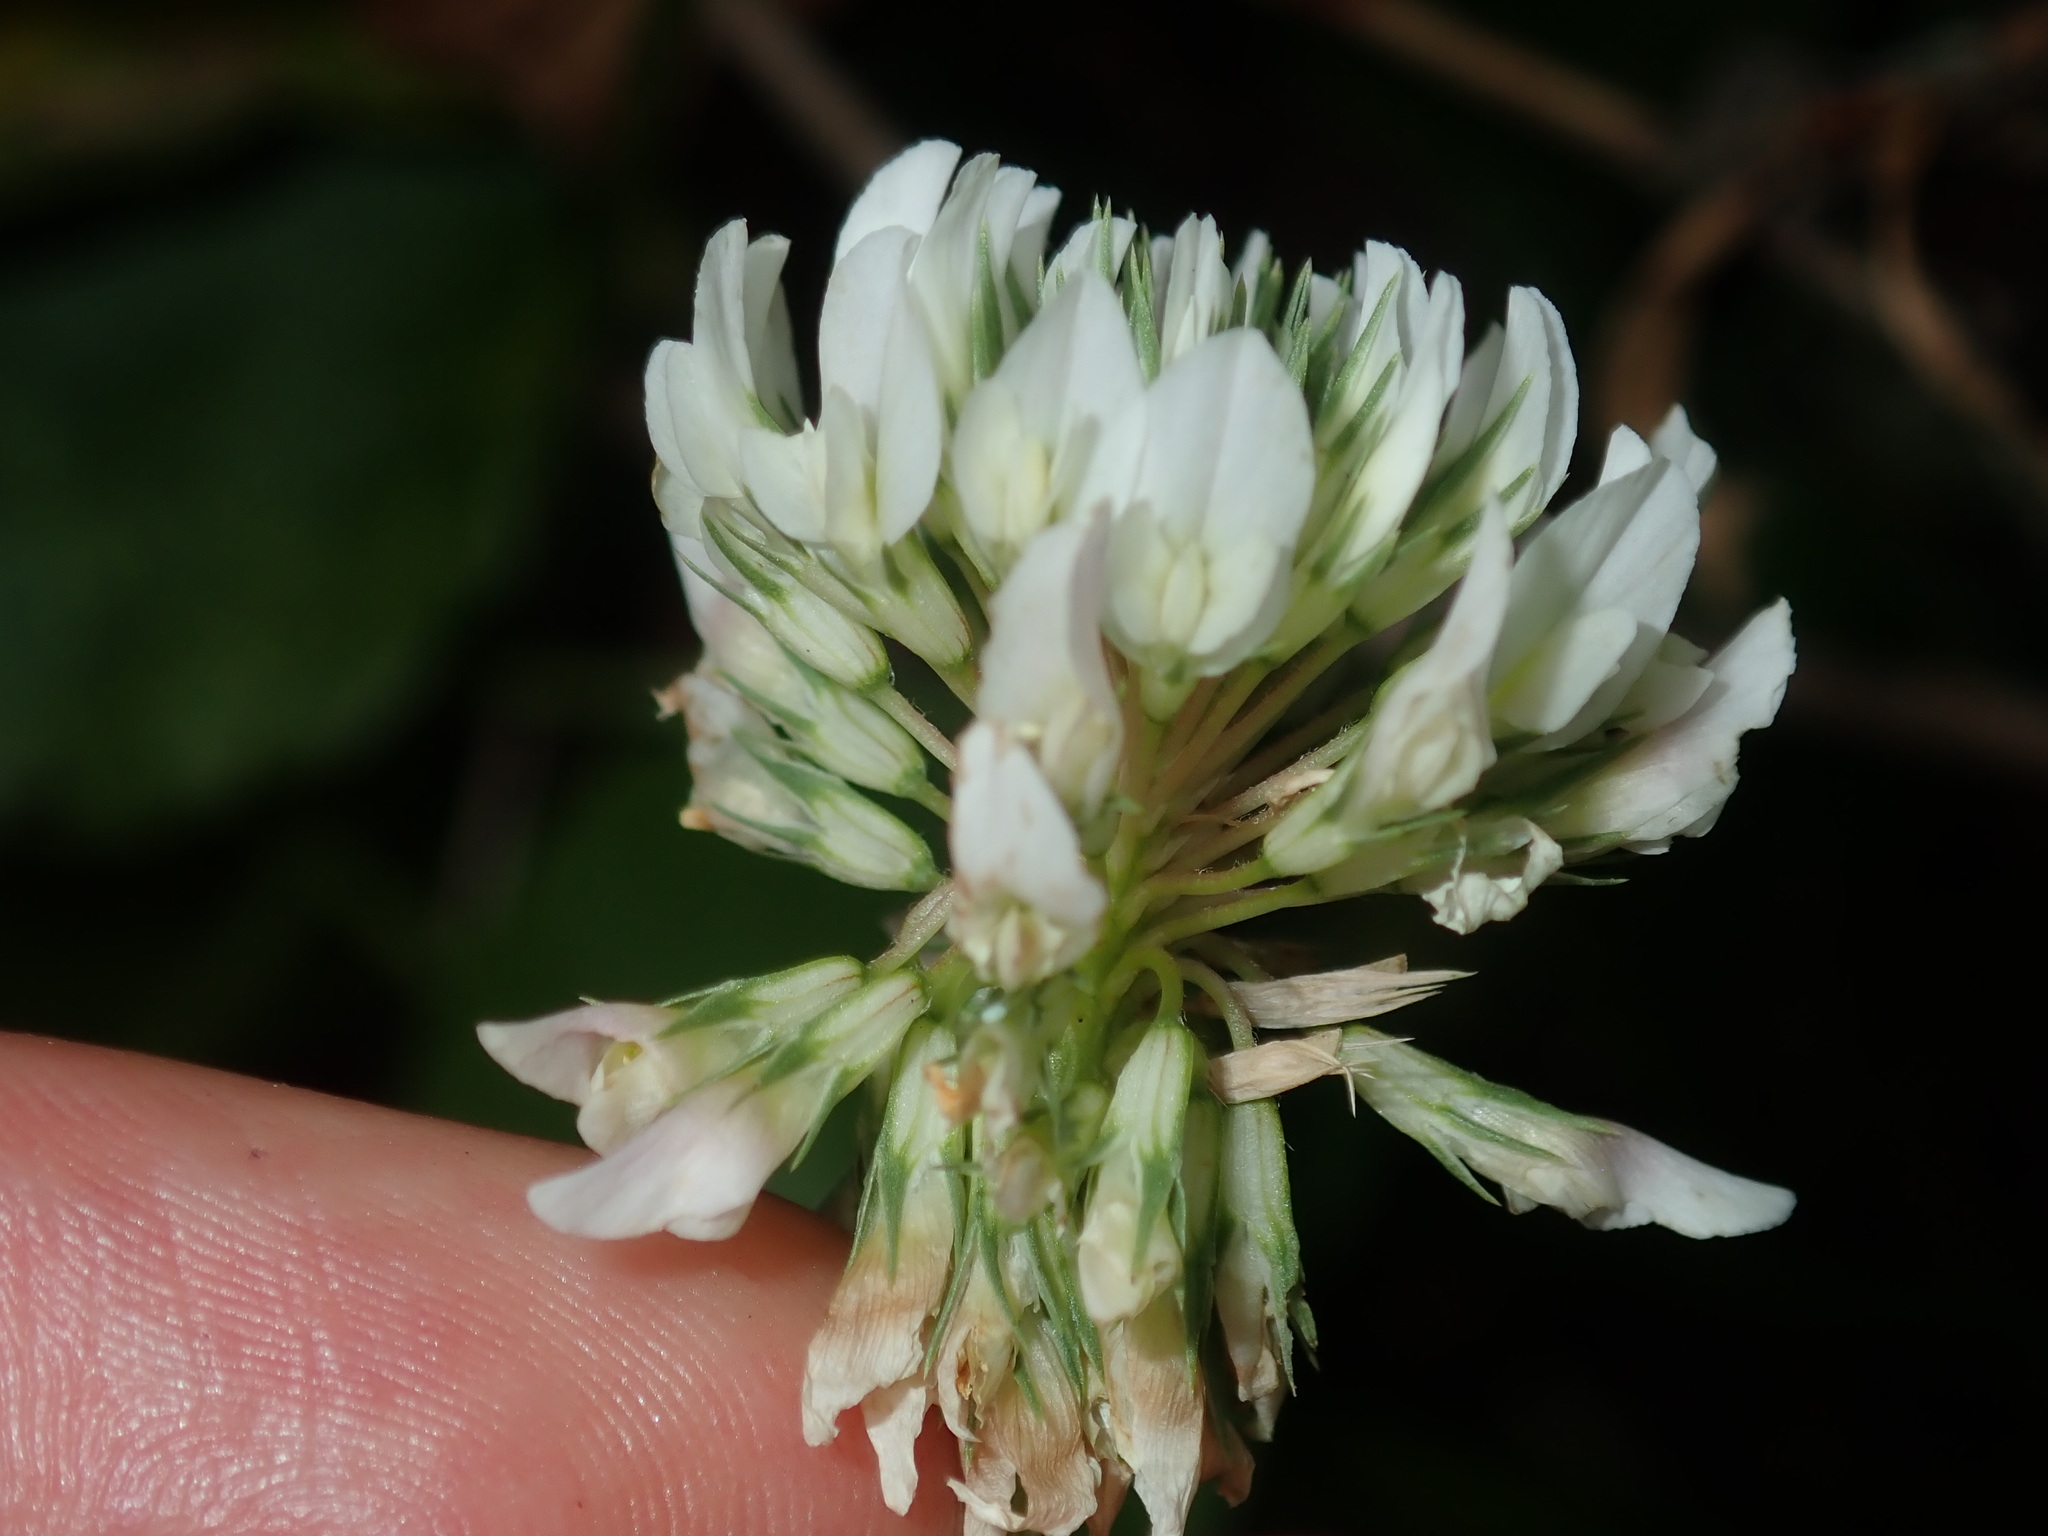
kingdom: Plantae
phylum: Tracheophyta
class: Magnoliopsida
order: Fabales
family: Fabaceae
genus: Trifolium
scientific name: Trifolium repens
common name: White clover
